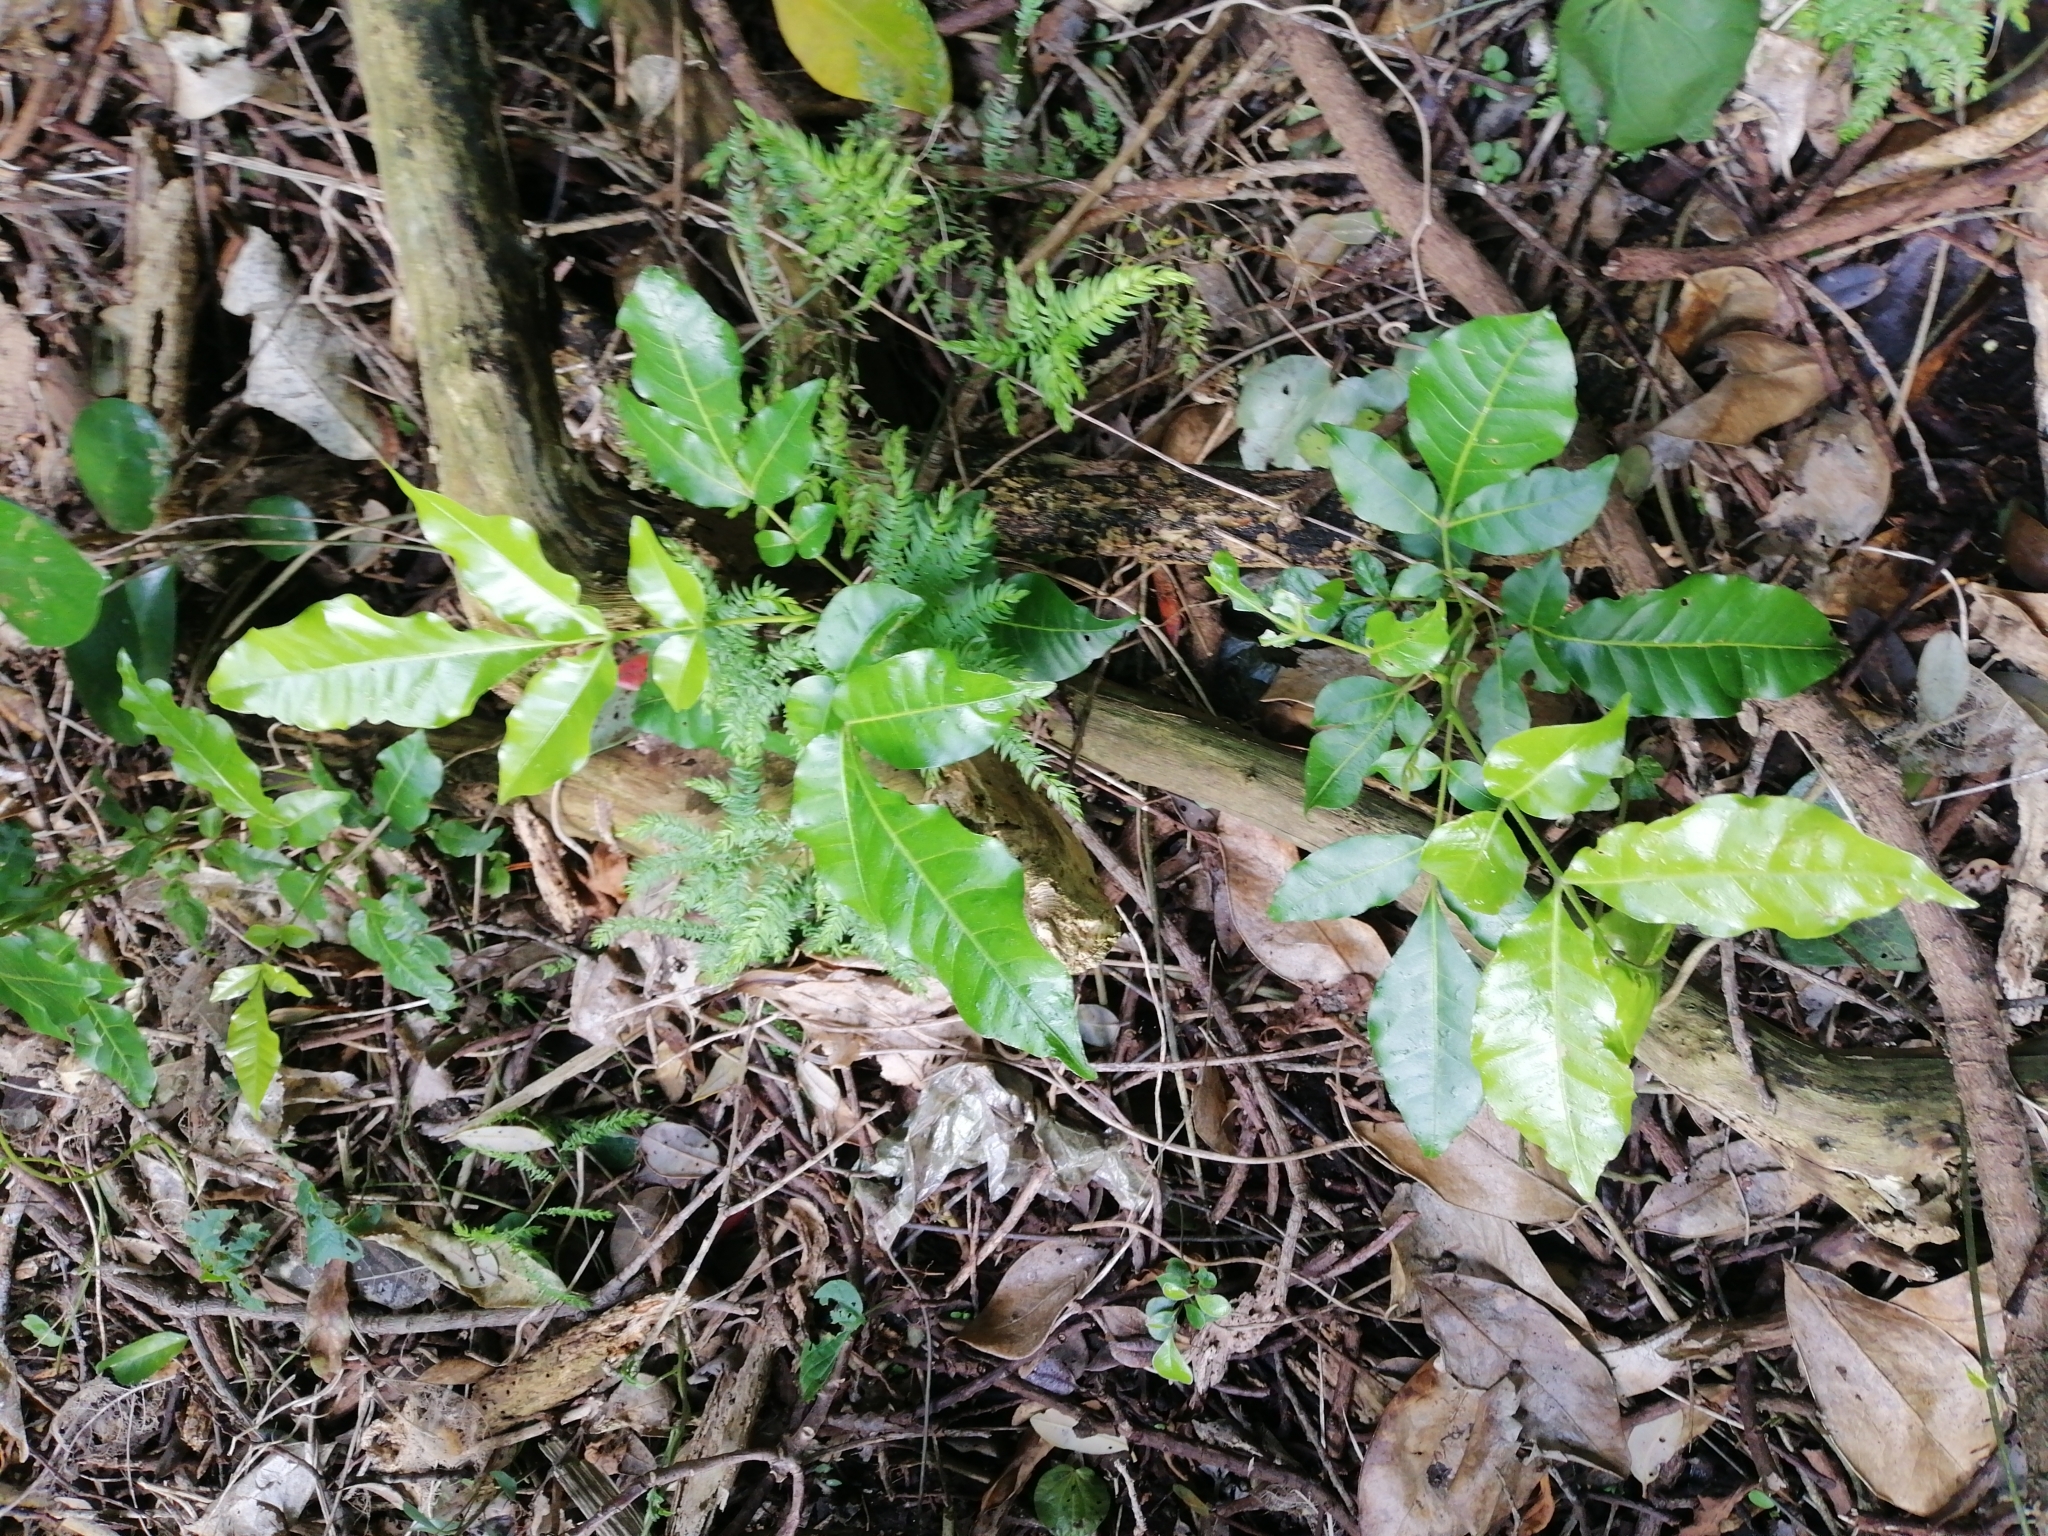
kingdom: Plantae
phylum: Tracheophyta
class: Liliopsida
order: Asparagales
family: Asparagaceae
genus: Asparagus
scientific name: Asparagus scandens
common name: Asparagus-fern
